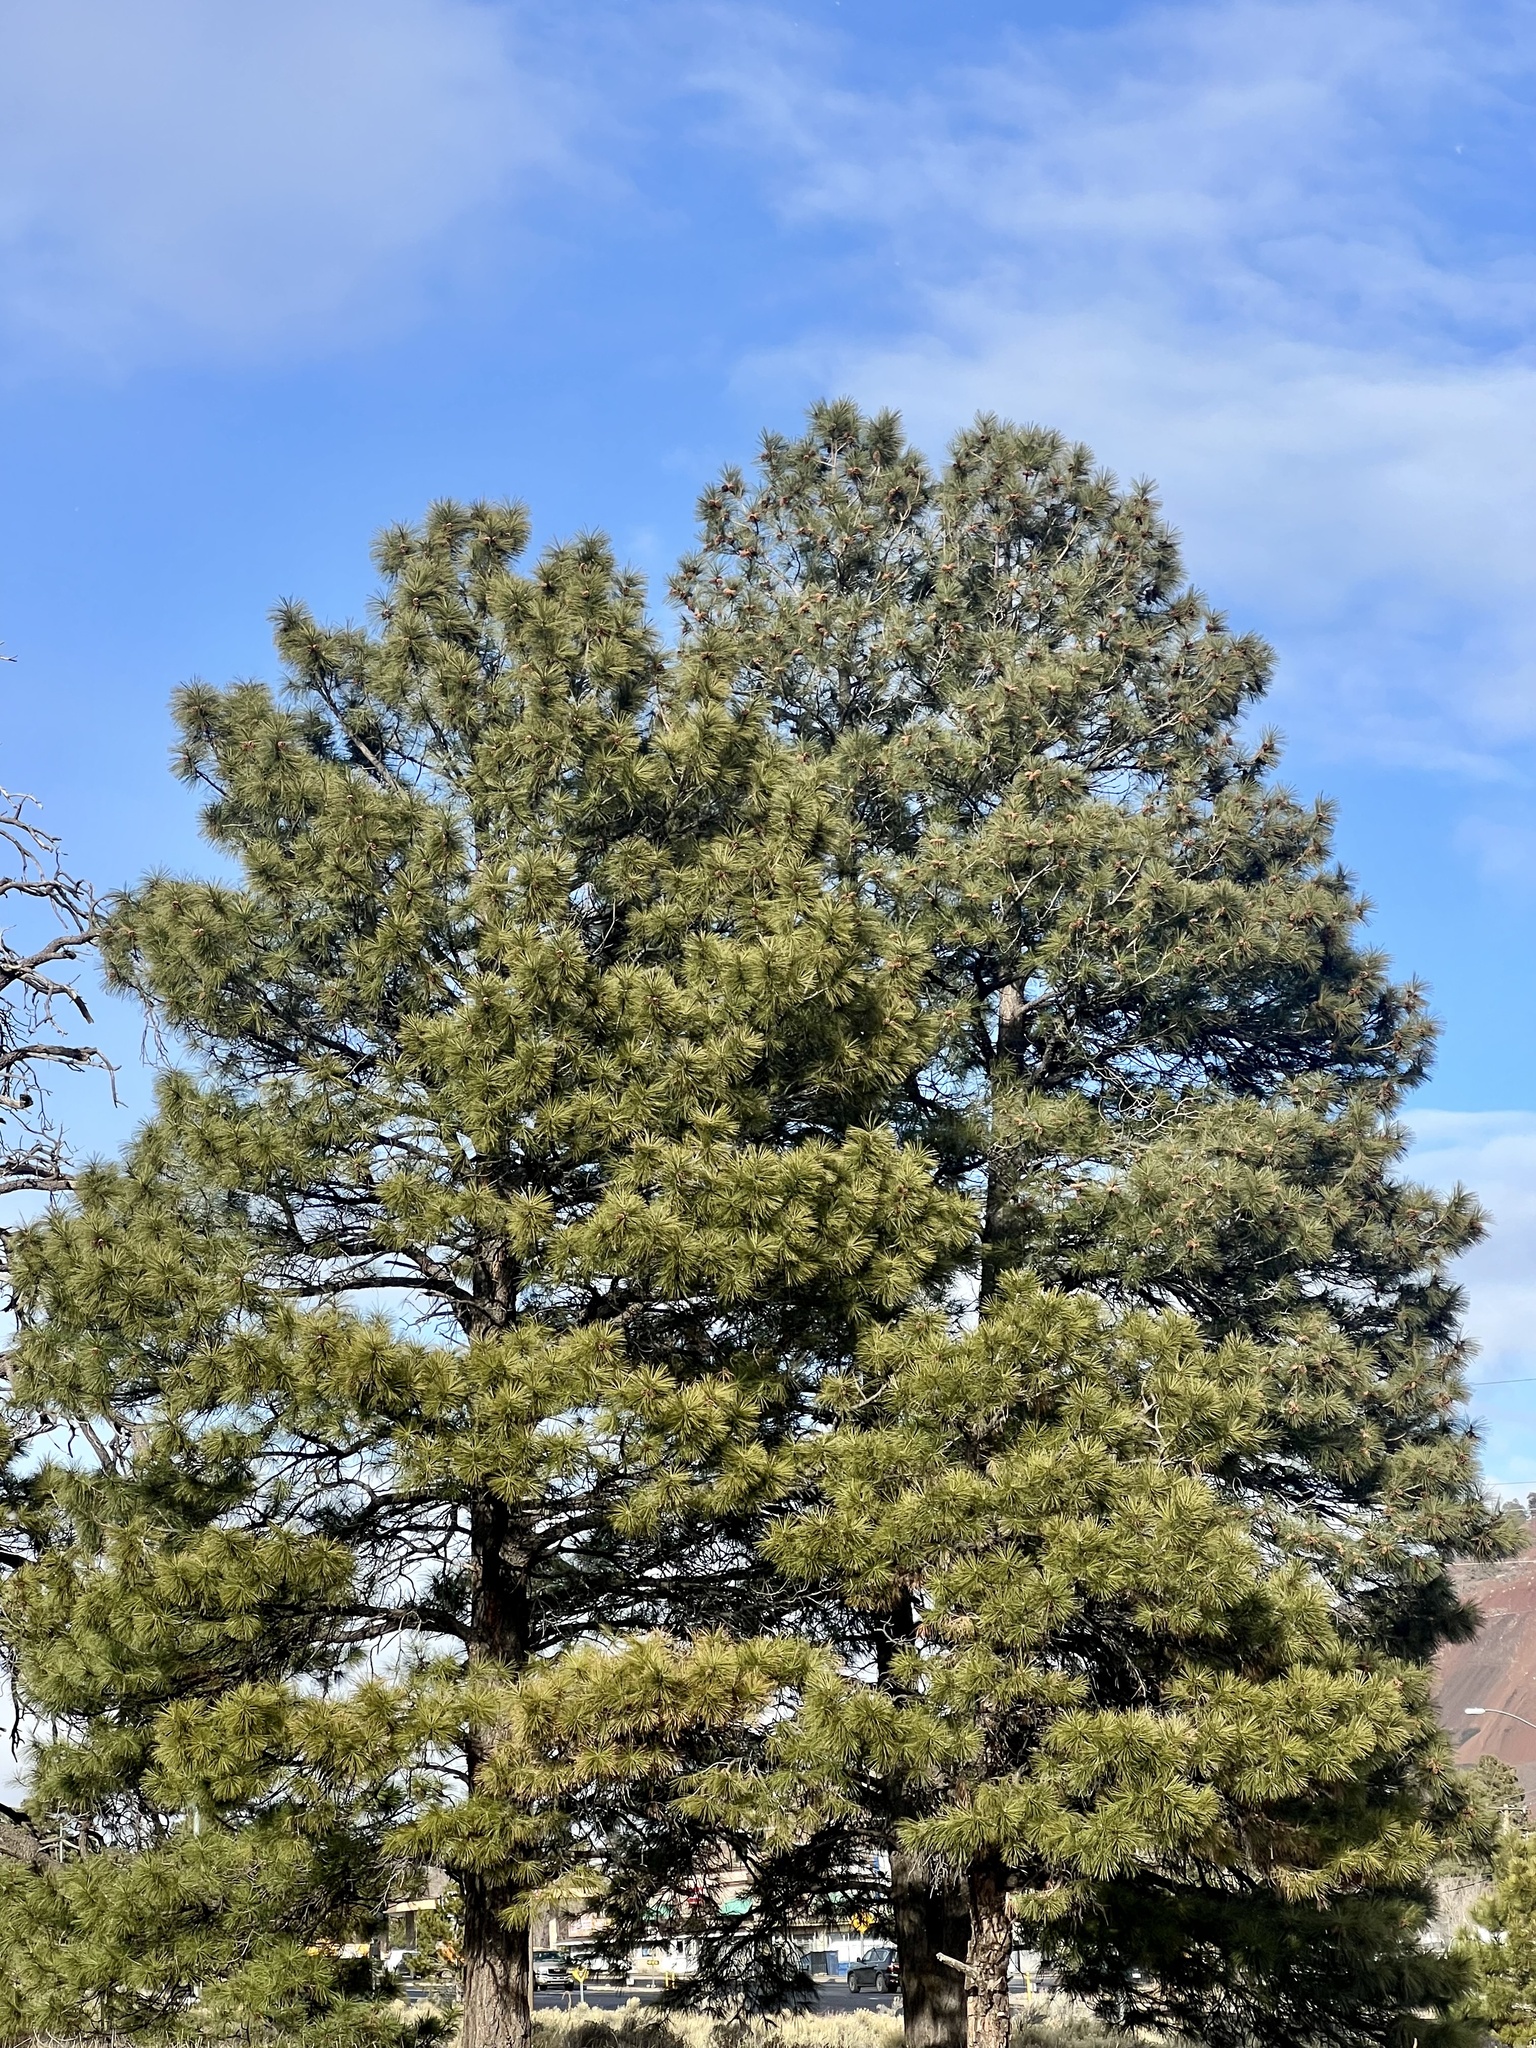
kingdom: Plantae
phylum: Tracheophyta
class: Pinopsida
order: Pinales
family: Pinaceae
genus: Pinus
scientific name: Pinus ponderosa
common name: Western yellow-pine
